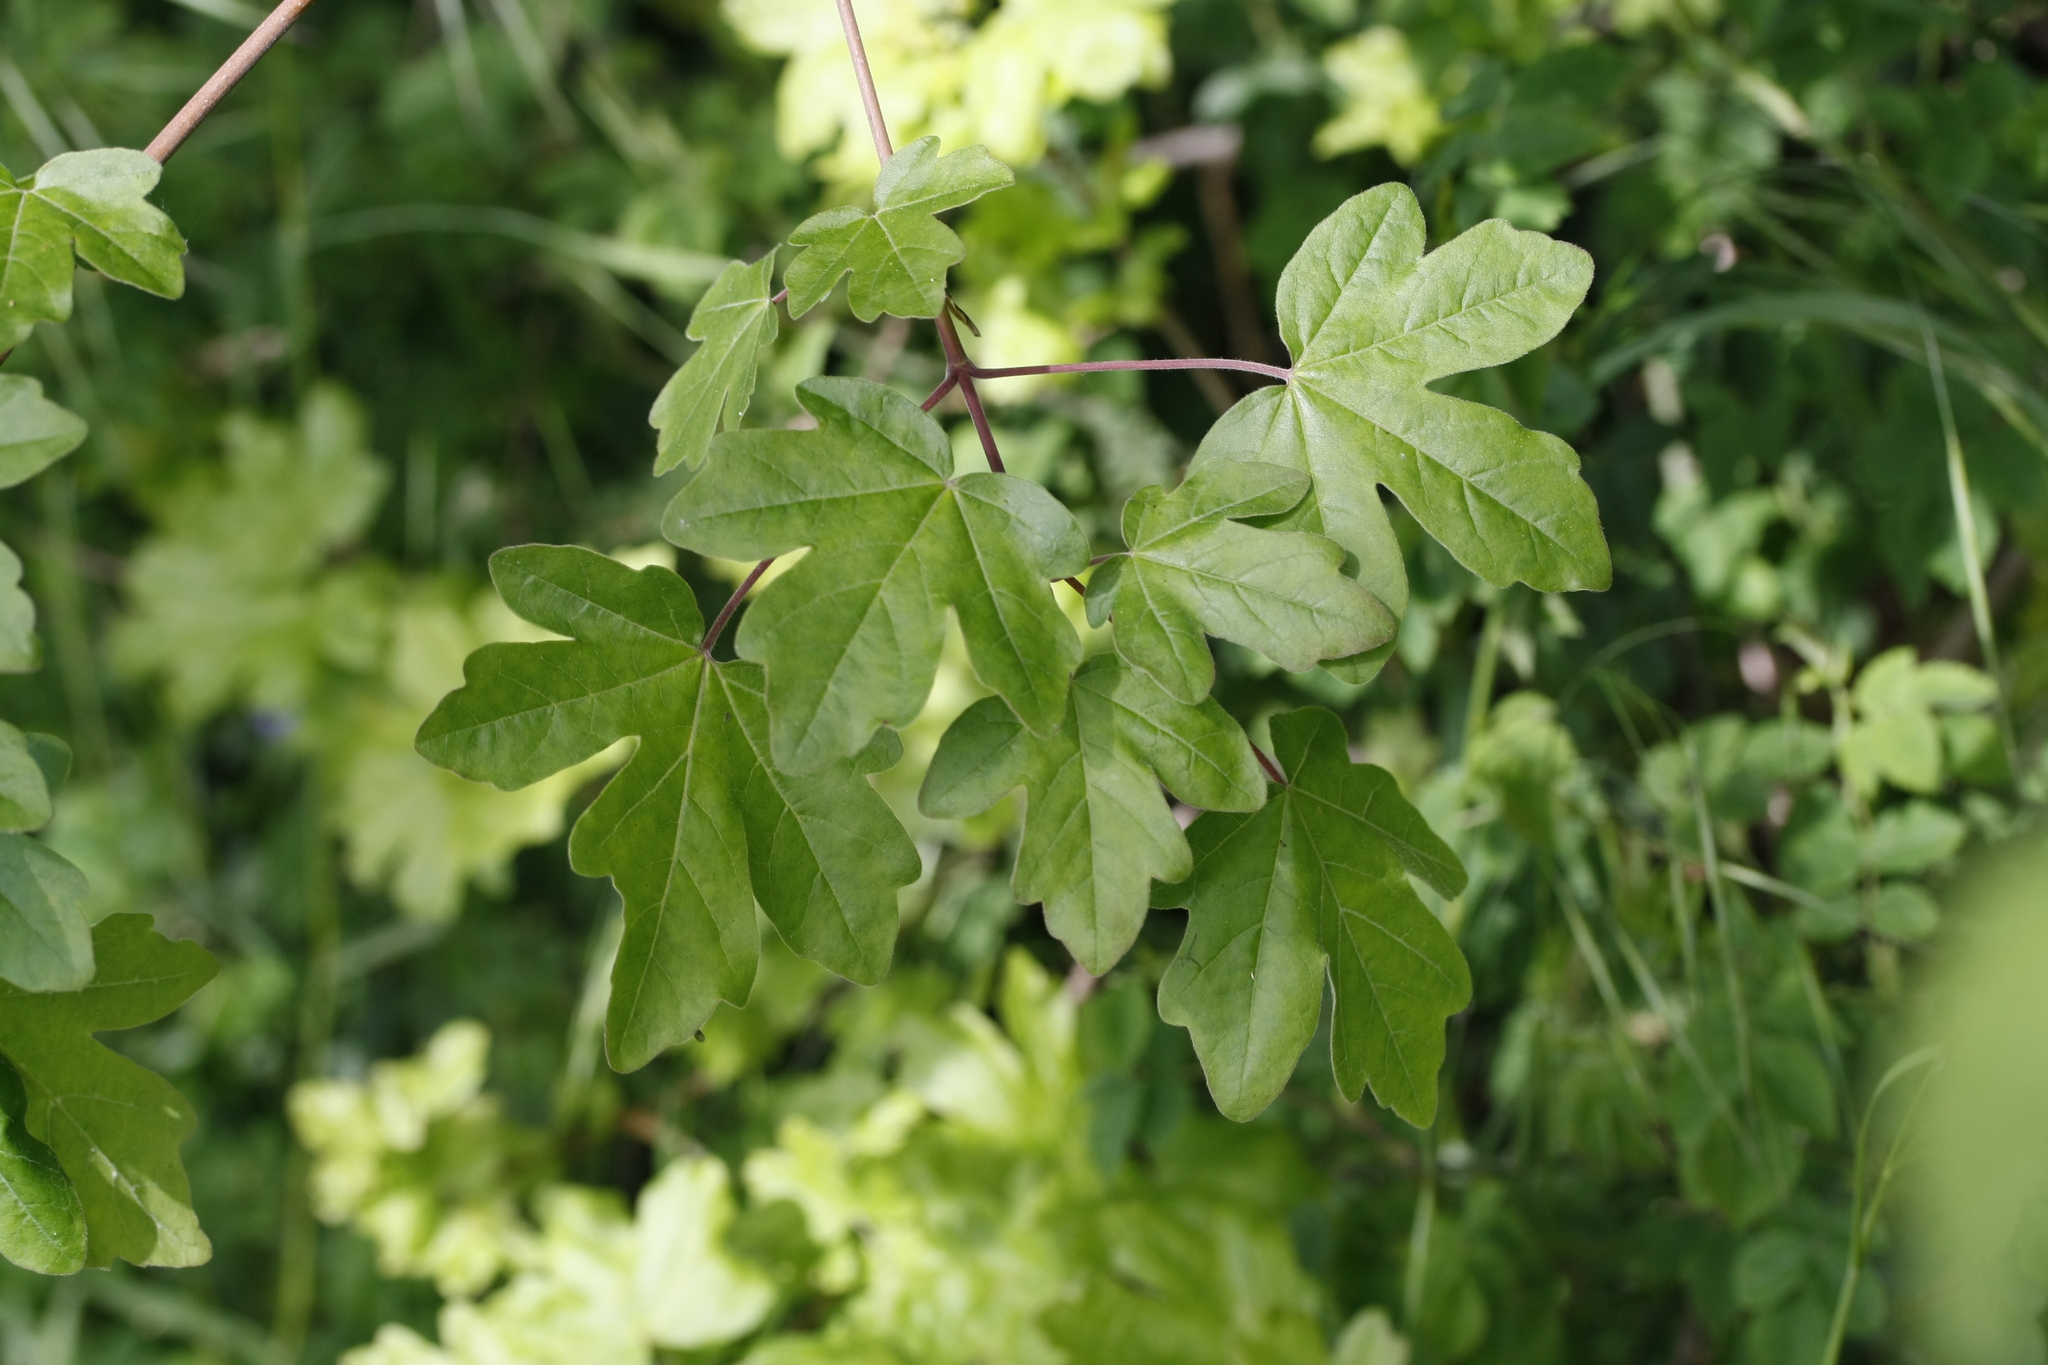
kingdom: Plantae
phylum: Tracheophyta
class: Magnoliopsida
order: Sapindales
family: Sapindaceae
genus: Acer
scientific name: Acer campestre
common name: Field maple
